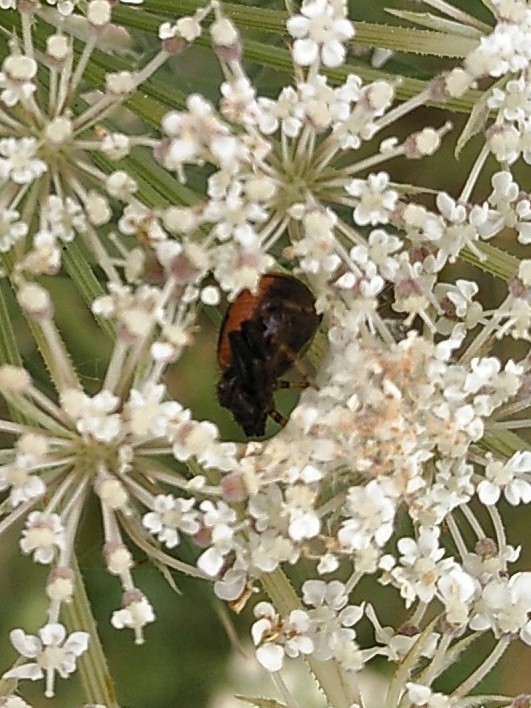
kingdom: Animalia
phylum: Arthropoda
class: Arachnida
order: Araneae
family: Thomisidae
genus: Synema
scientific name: Synema globosum
